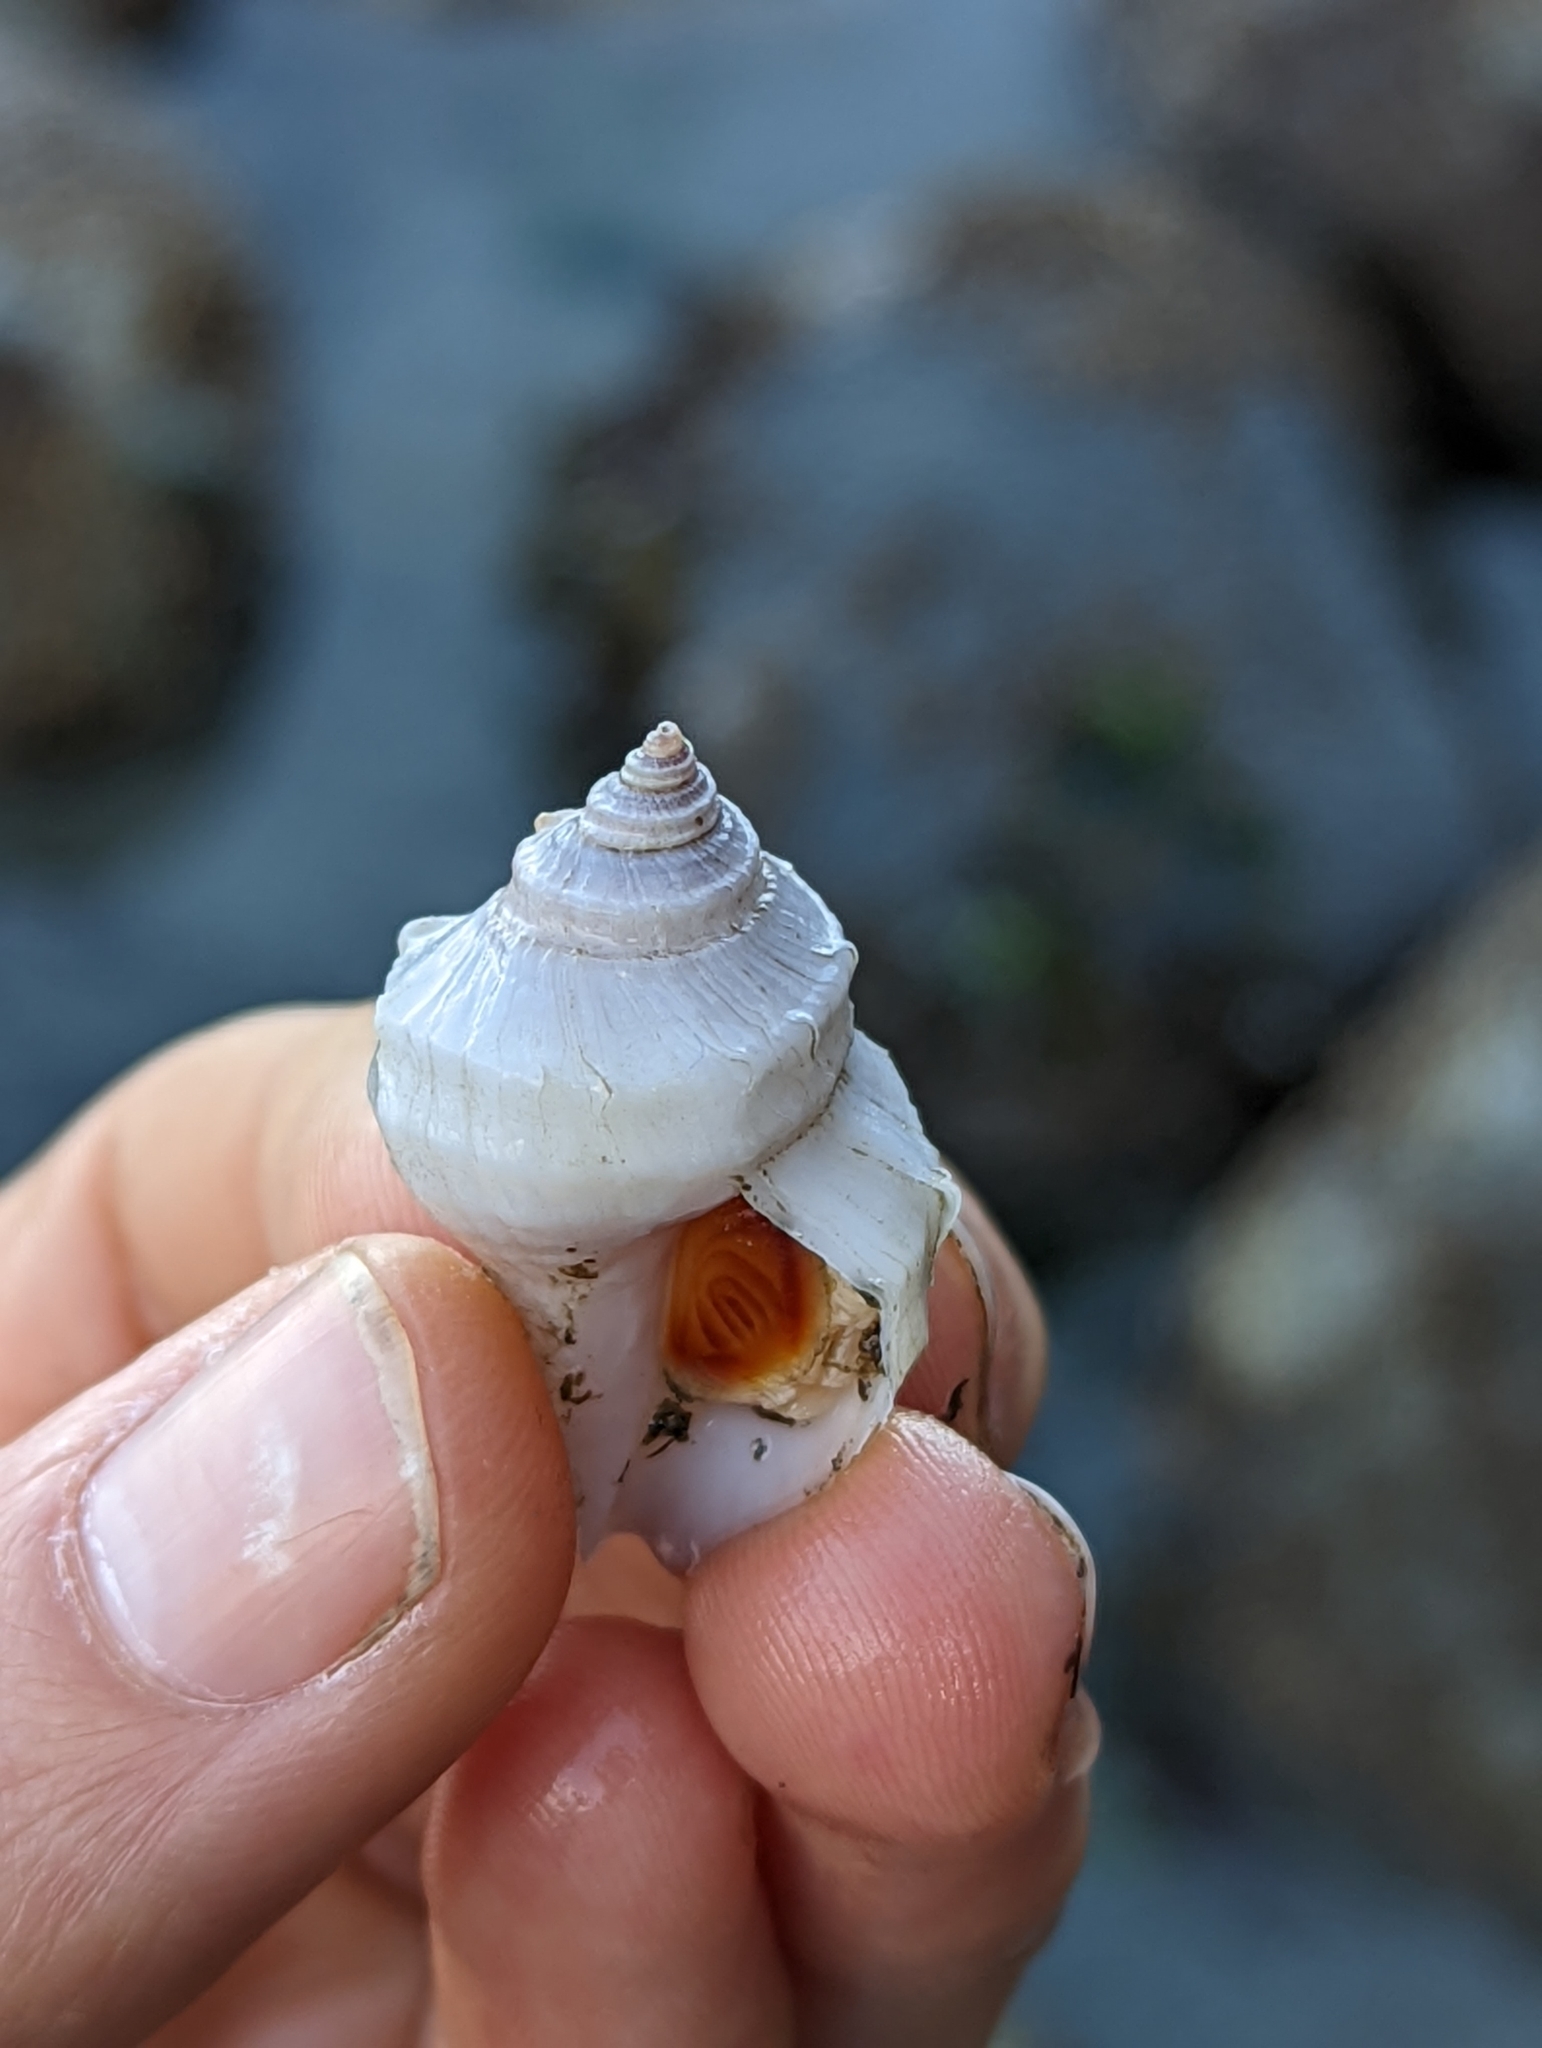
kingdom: Animalia
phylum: Mollusca
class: Gastropoda
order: Neogastropoda
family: Muricidae
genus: Nucella
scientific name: Nucella lamellosa
